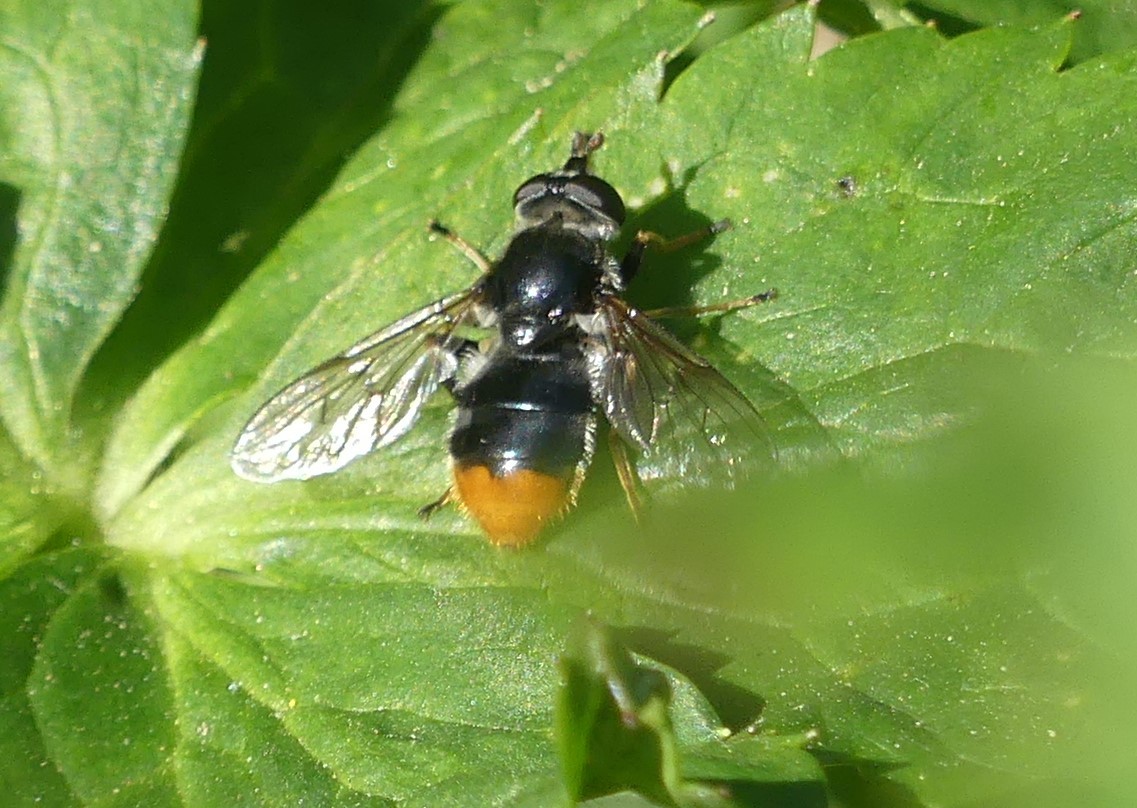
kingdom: Animalia
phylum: Arthropoda
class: Insecta
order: Diptera
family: Syrphidae
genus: Blera
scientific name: Blera fallax
